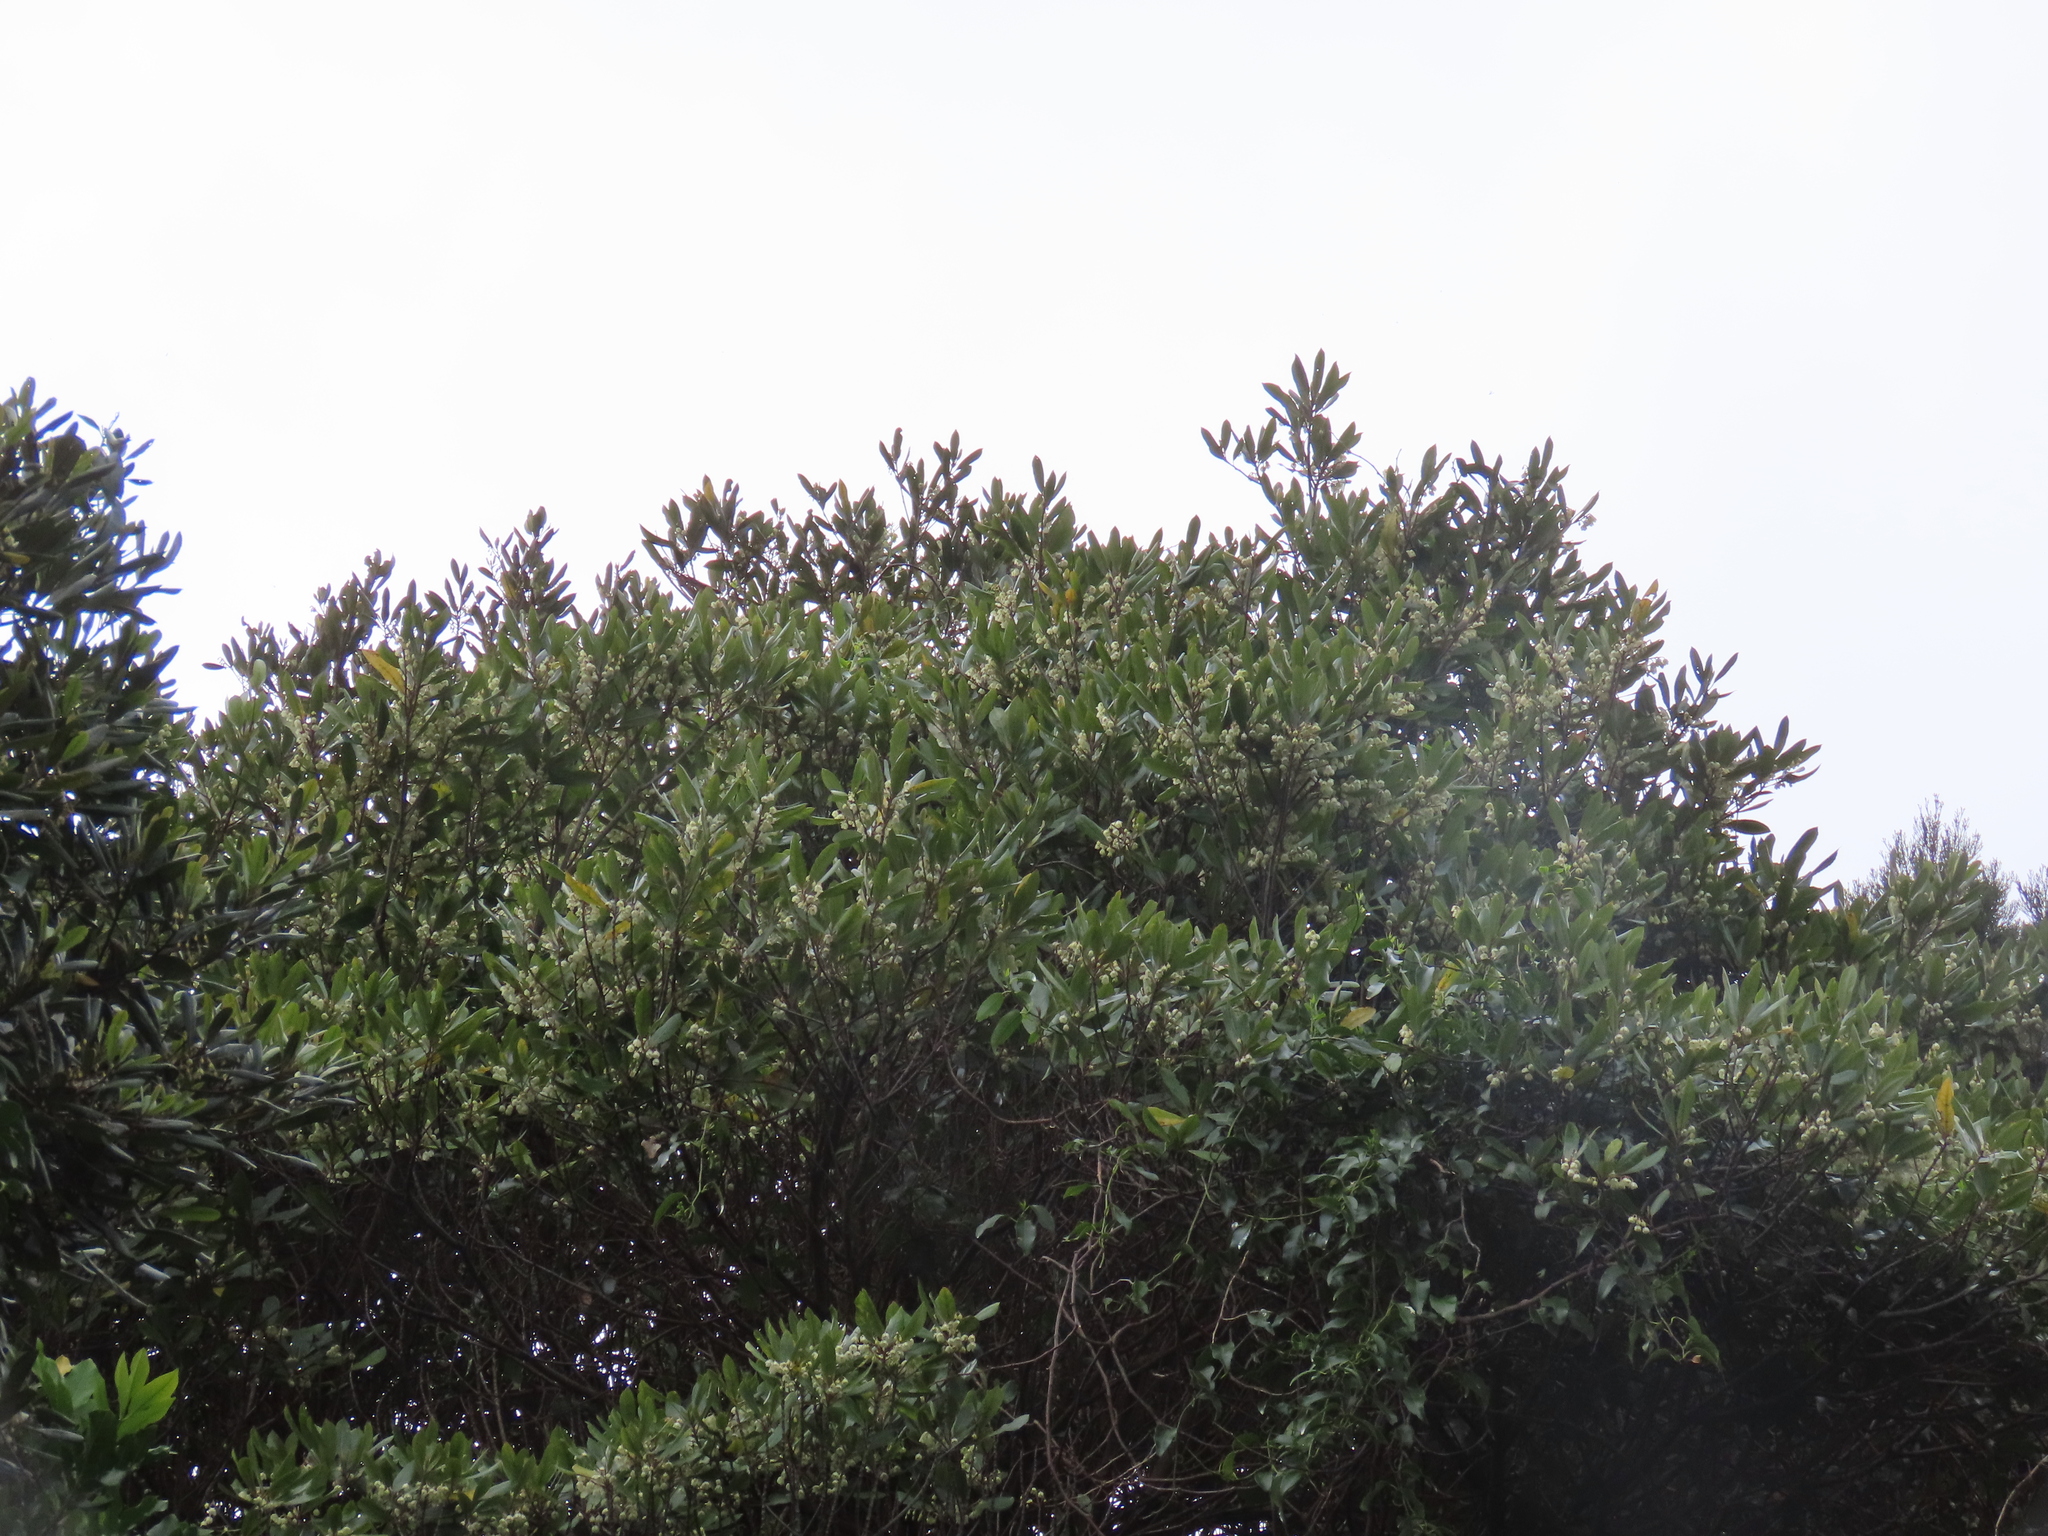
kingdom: Plantae
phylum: Tracheophyta
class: Magnoliopsida
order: Oxalidales
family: Elaeocarpaceae
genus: Elaeocarpus
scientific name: Elaeocarpus dentatus
